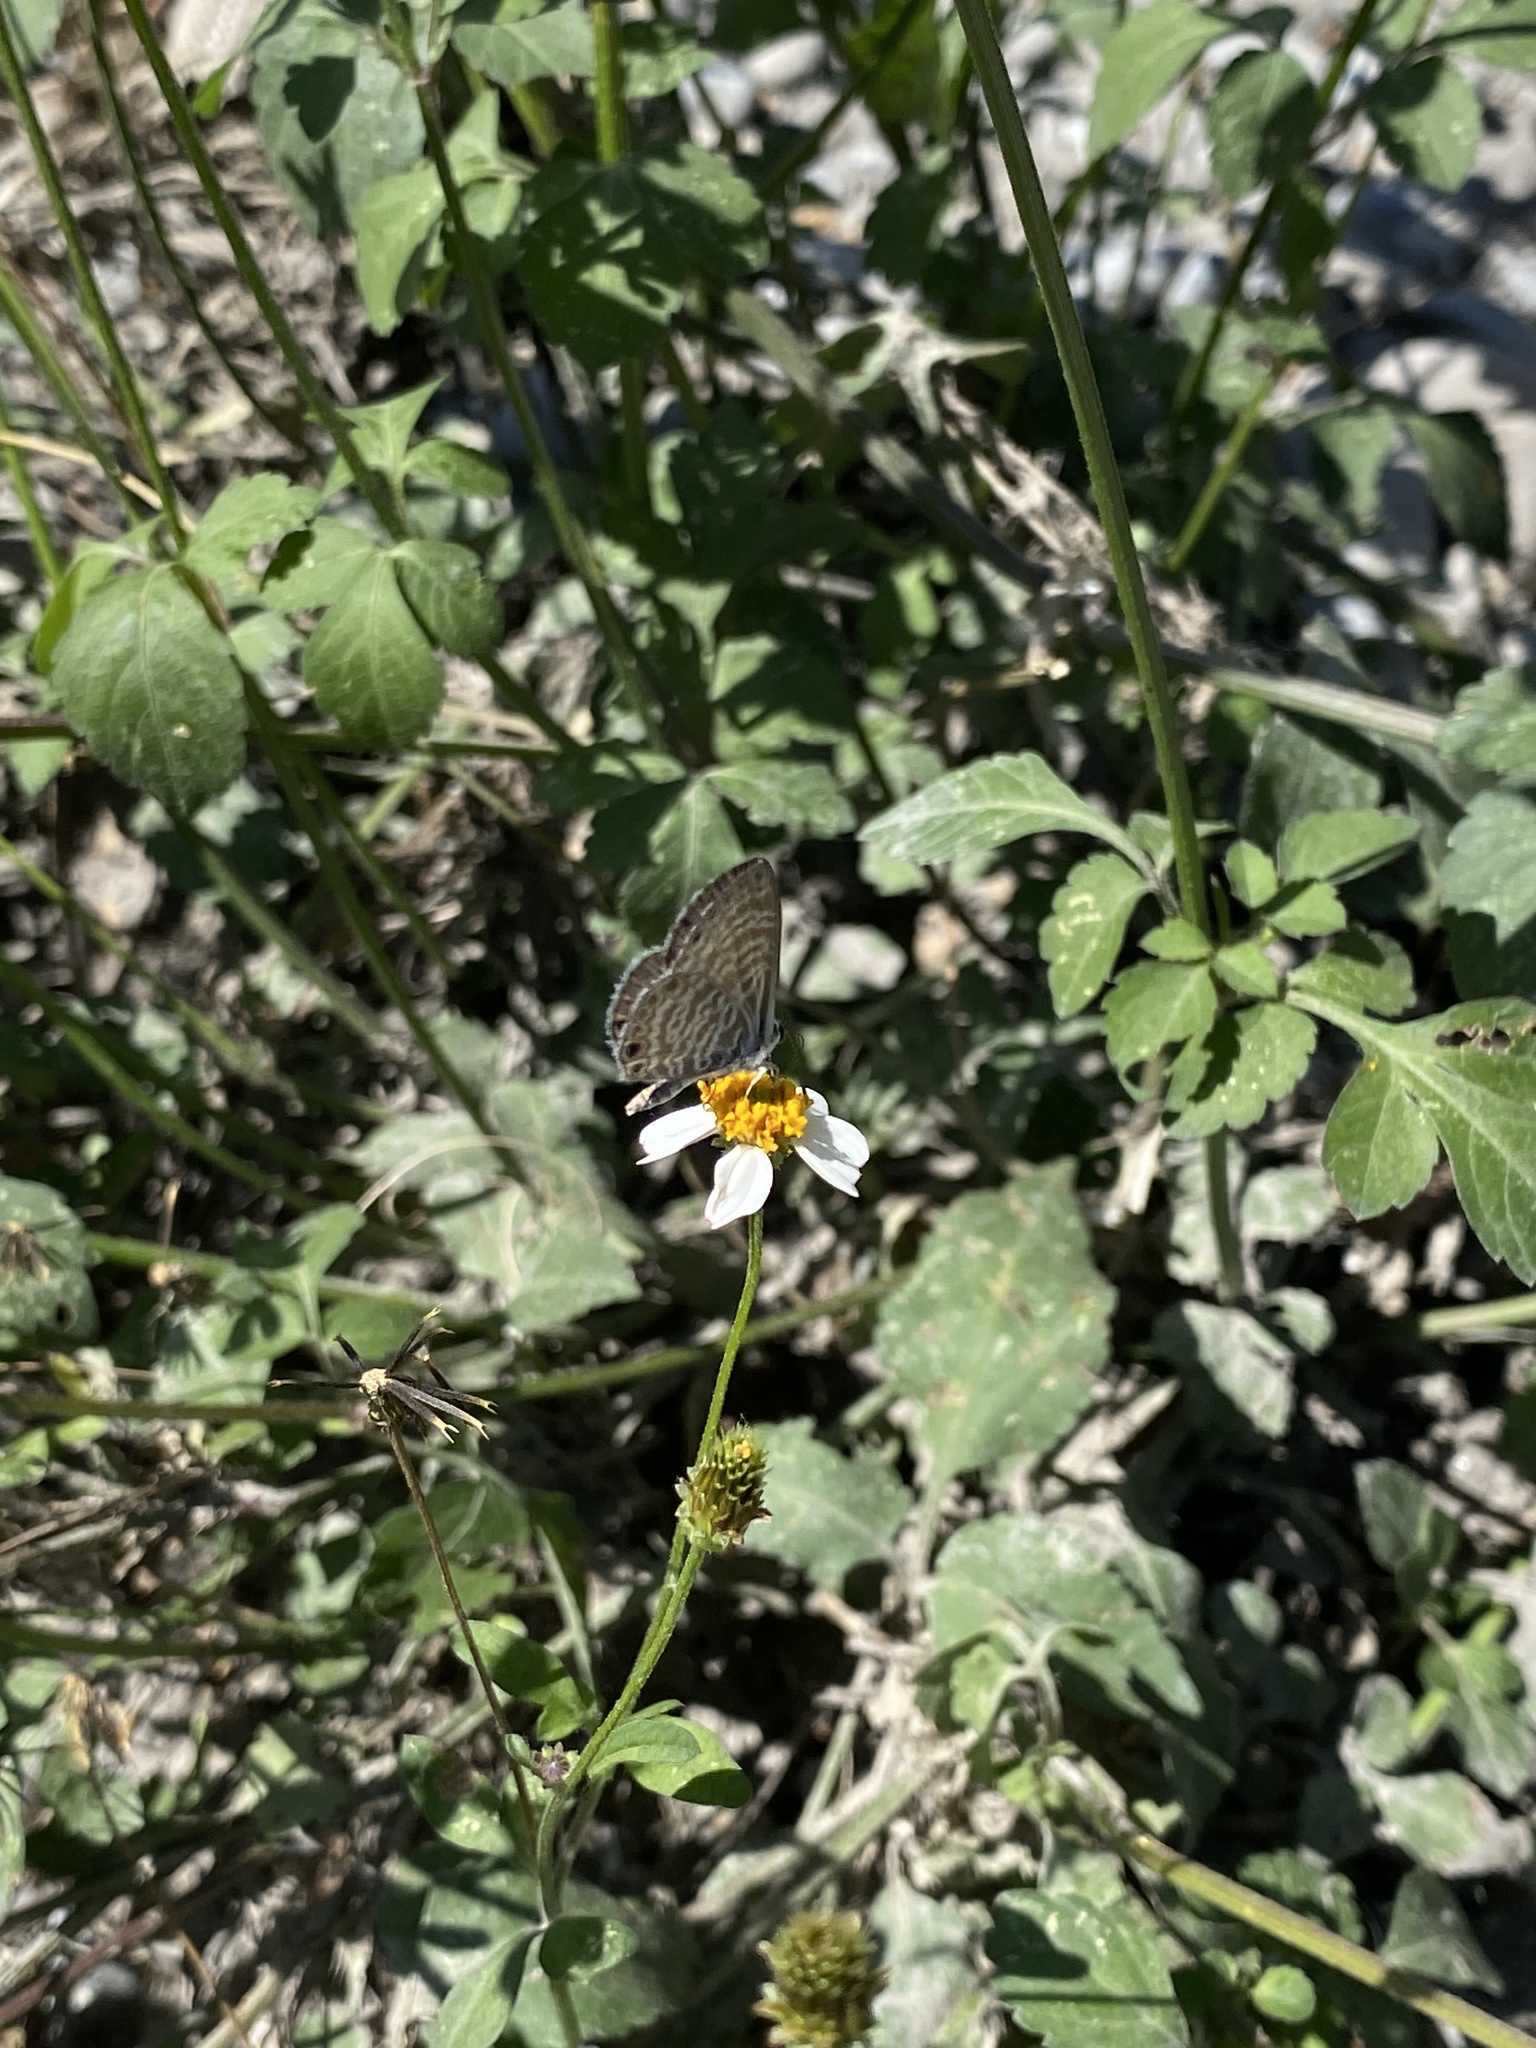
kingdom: Animalia
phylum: Arthropoda
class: Insecta
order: Lepidoptera
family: Lycaenidae
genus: Leptotes
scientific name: Leptotes marina
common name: Marine blue
